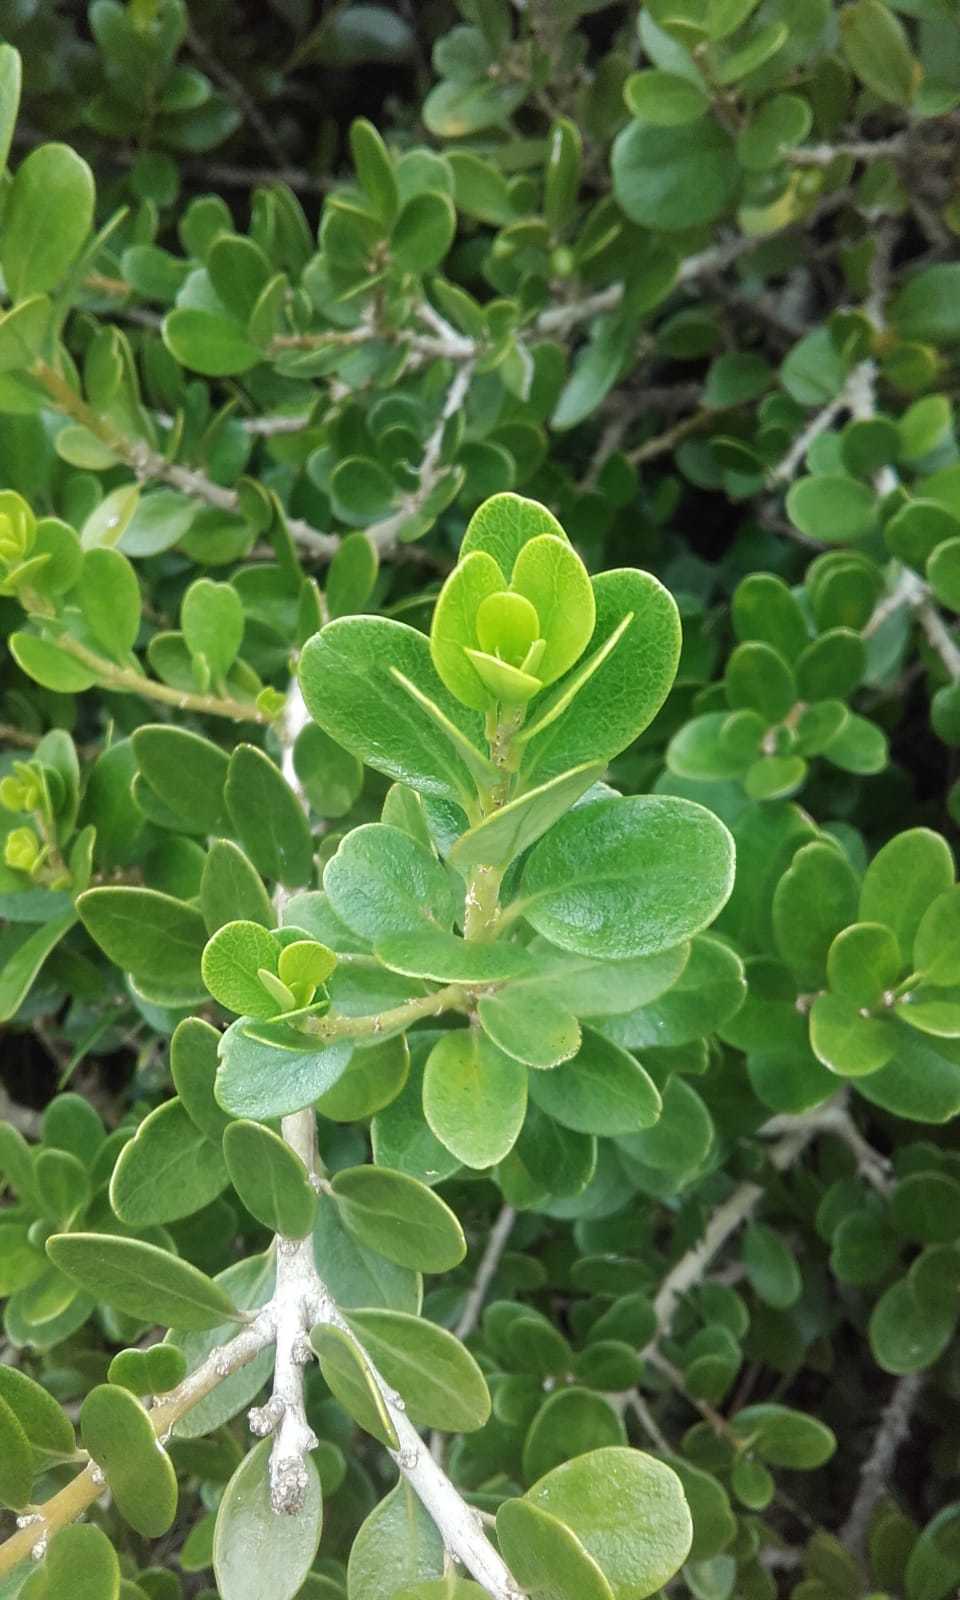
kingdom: Plantae
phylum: Tracheophyta
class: Magnoliopsida
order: Malpighiales
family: Violaceae
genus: Melicytus
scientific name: Melicytus orarius
